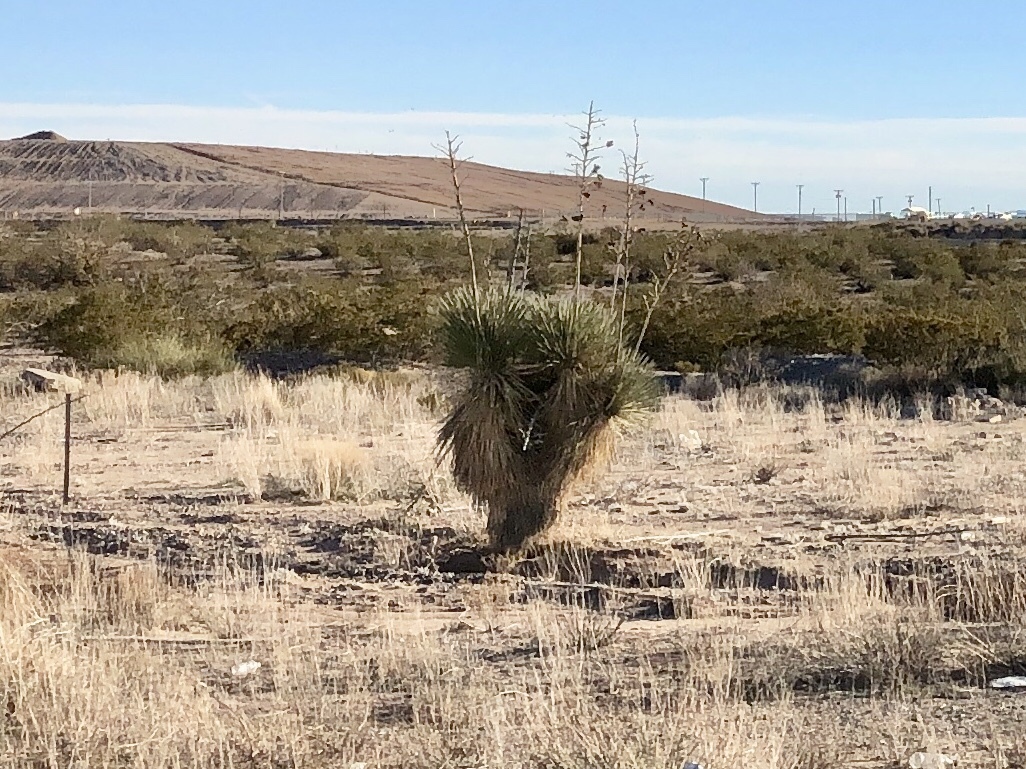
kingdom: Plantae
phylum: Tracheophyta
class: Liliopsida
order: Asparagales
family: Asparagaceae
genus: Yucca
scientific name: Yucca elata
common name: Palmella
